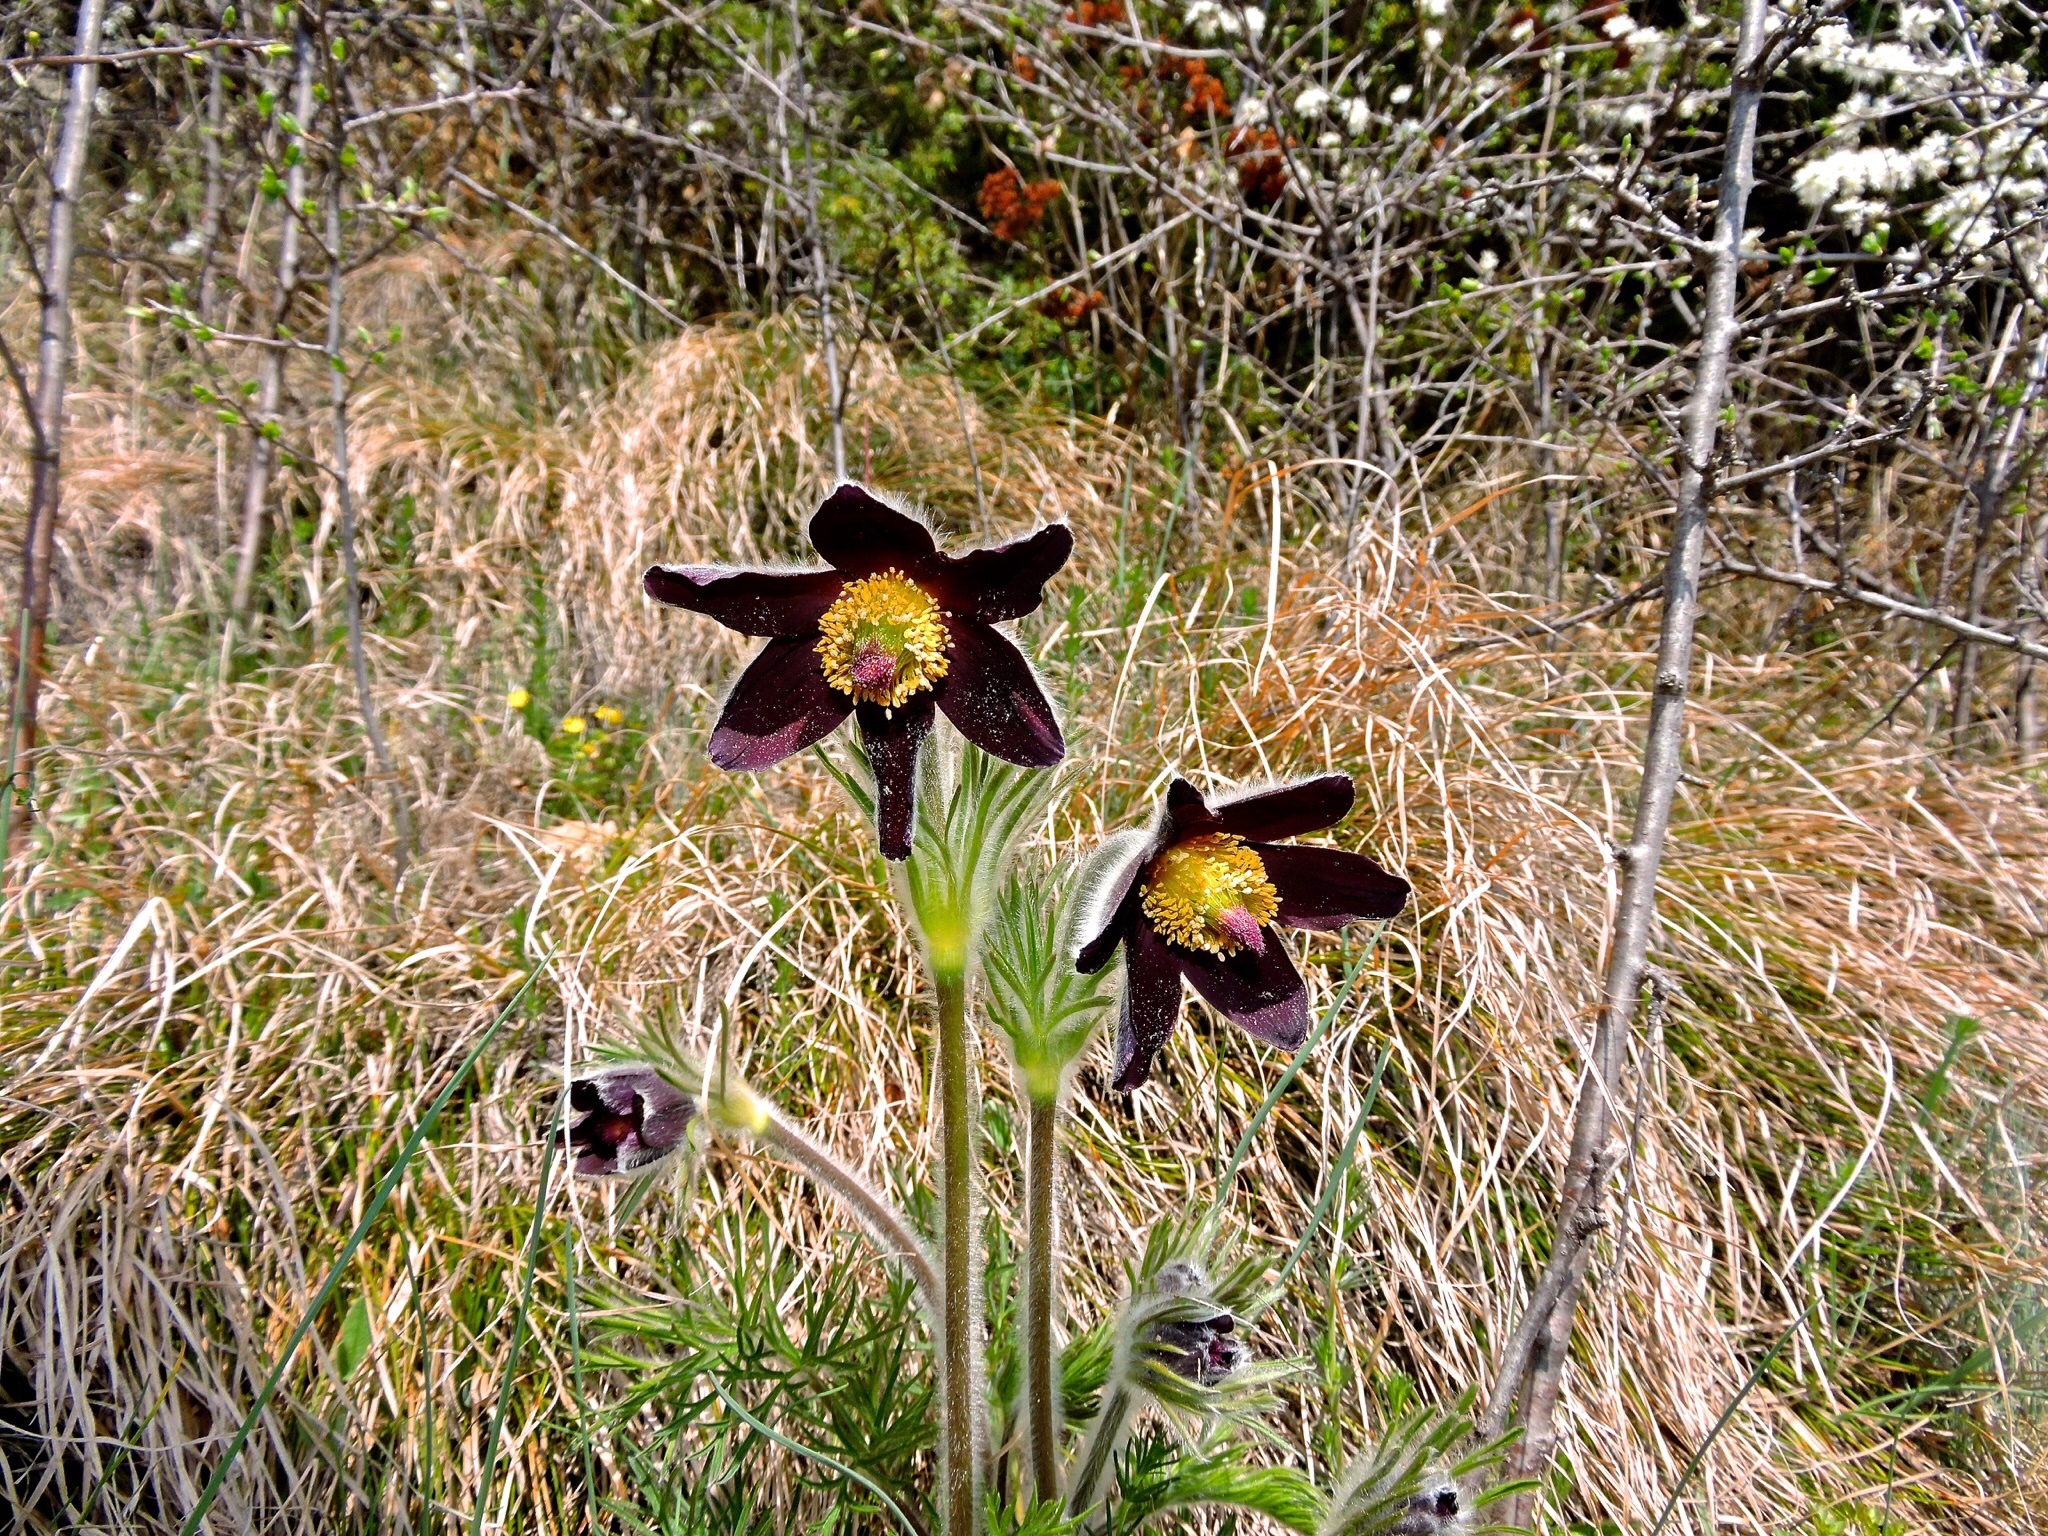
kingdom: Plantae
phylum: Tracheophyta
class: Magnoliopsida
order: Ranunculales
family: Ranunculaceae
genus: Pulsatilla
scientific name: Pulsatilla montana
